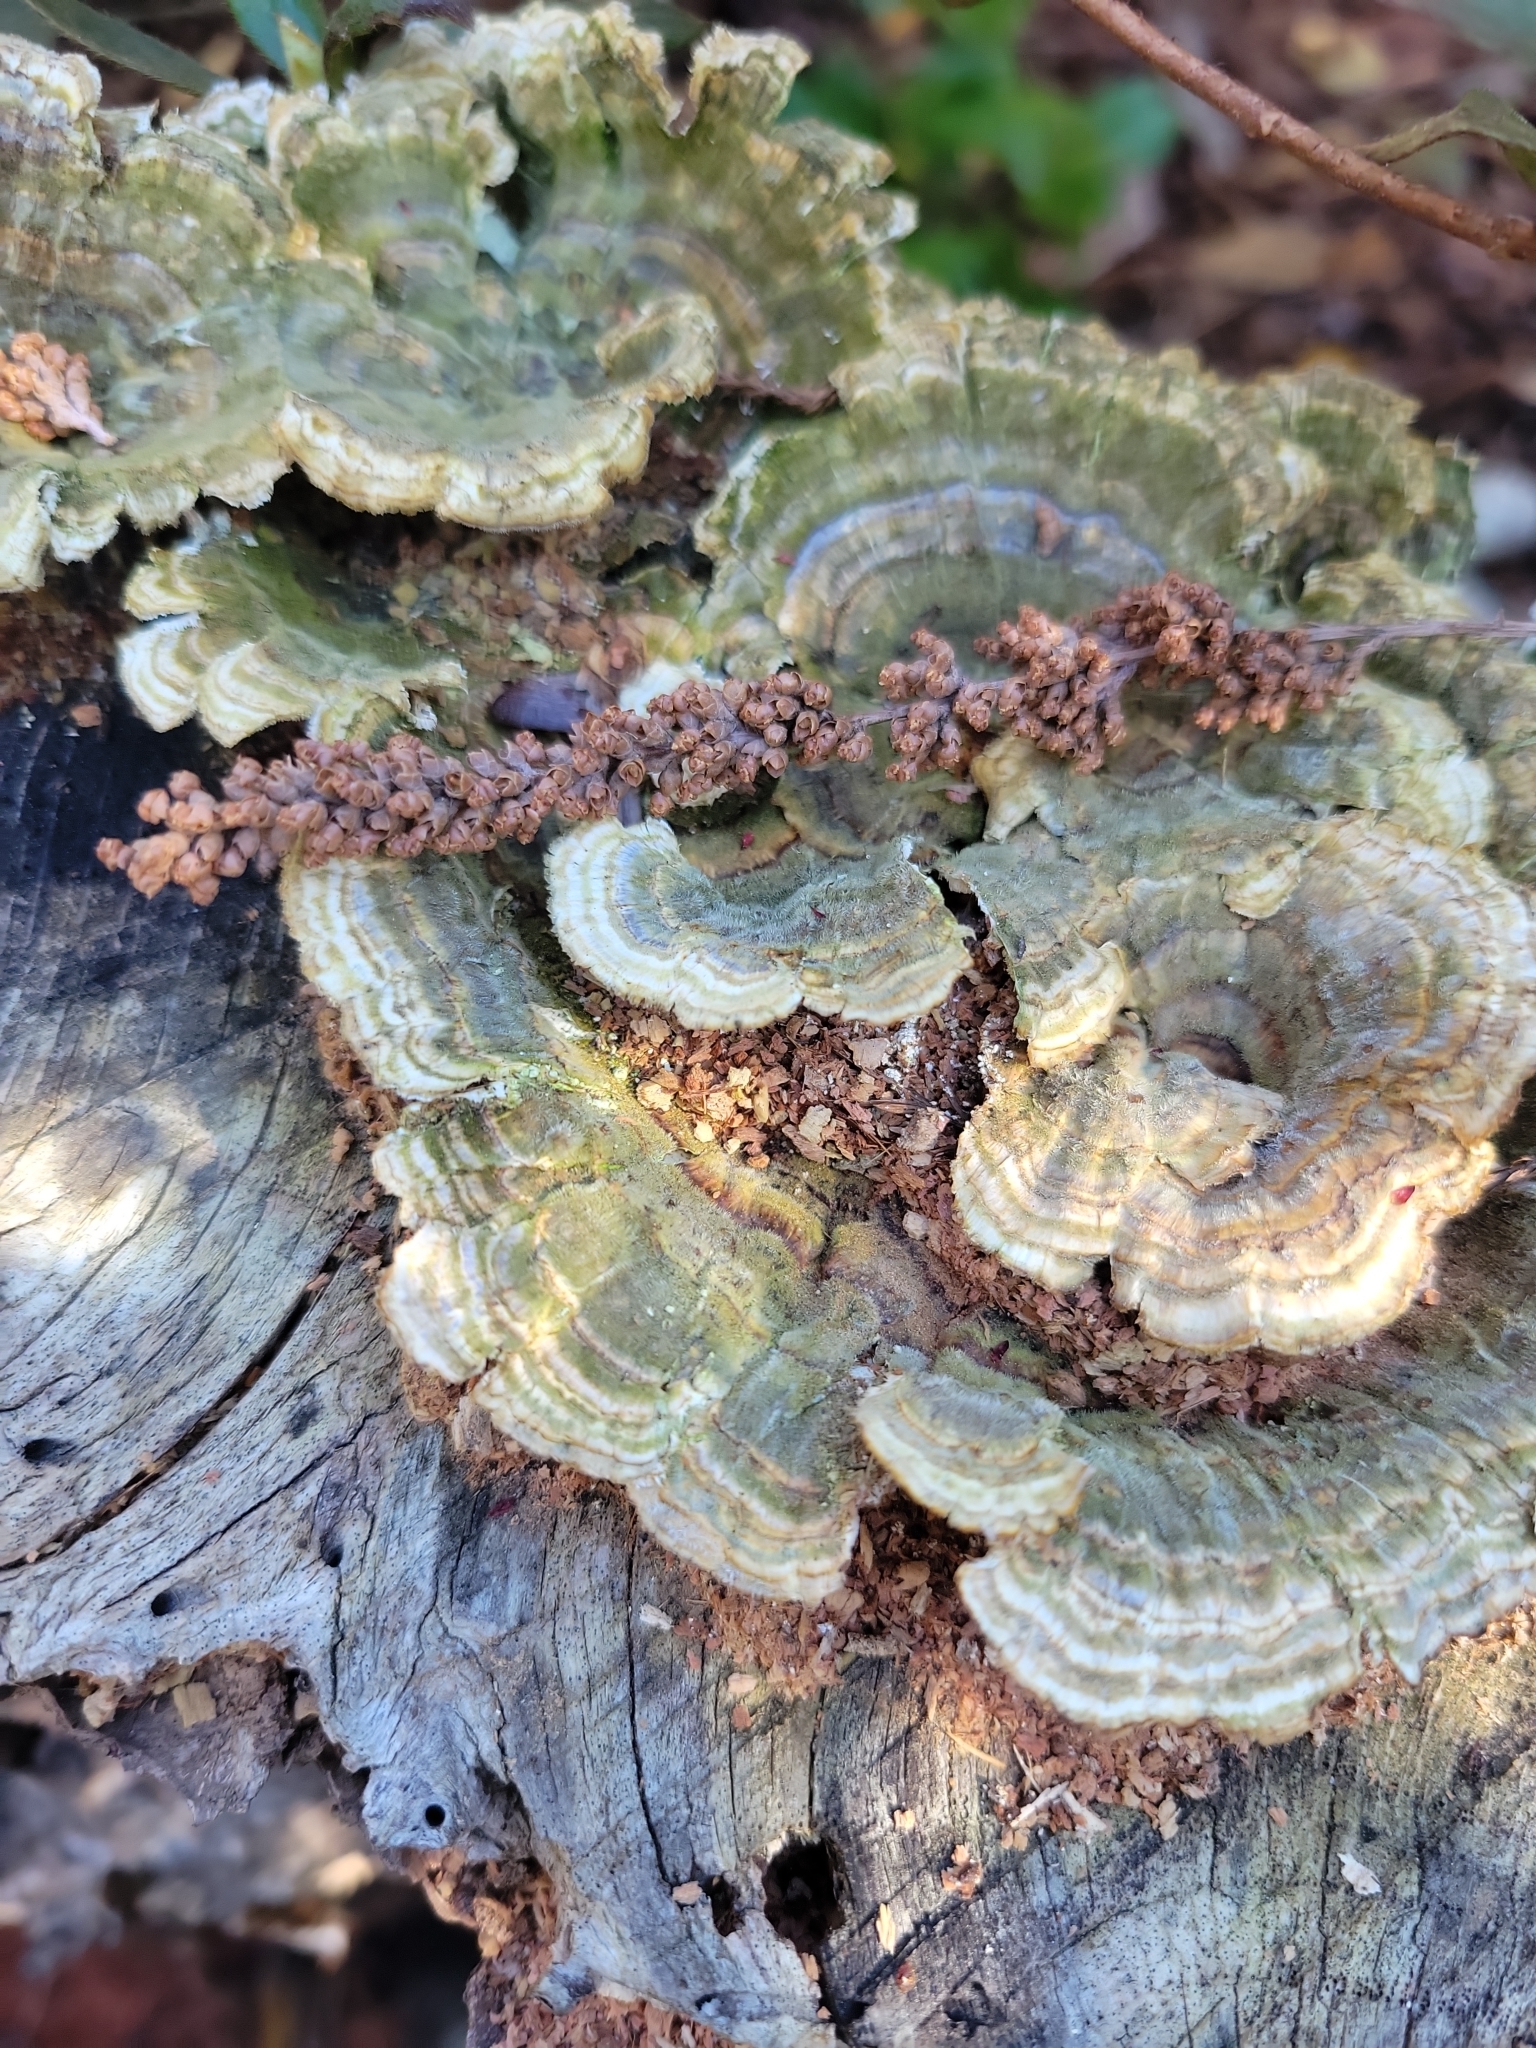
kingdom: Fungi
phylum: Basidiomycota
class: Agaricomycetes
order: Polyporales
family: Polyporaceae
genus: Lenzites
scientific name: Lenzites betulinus
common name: Birch mazegill
